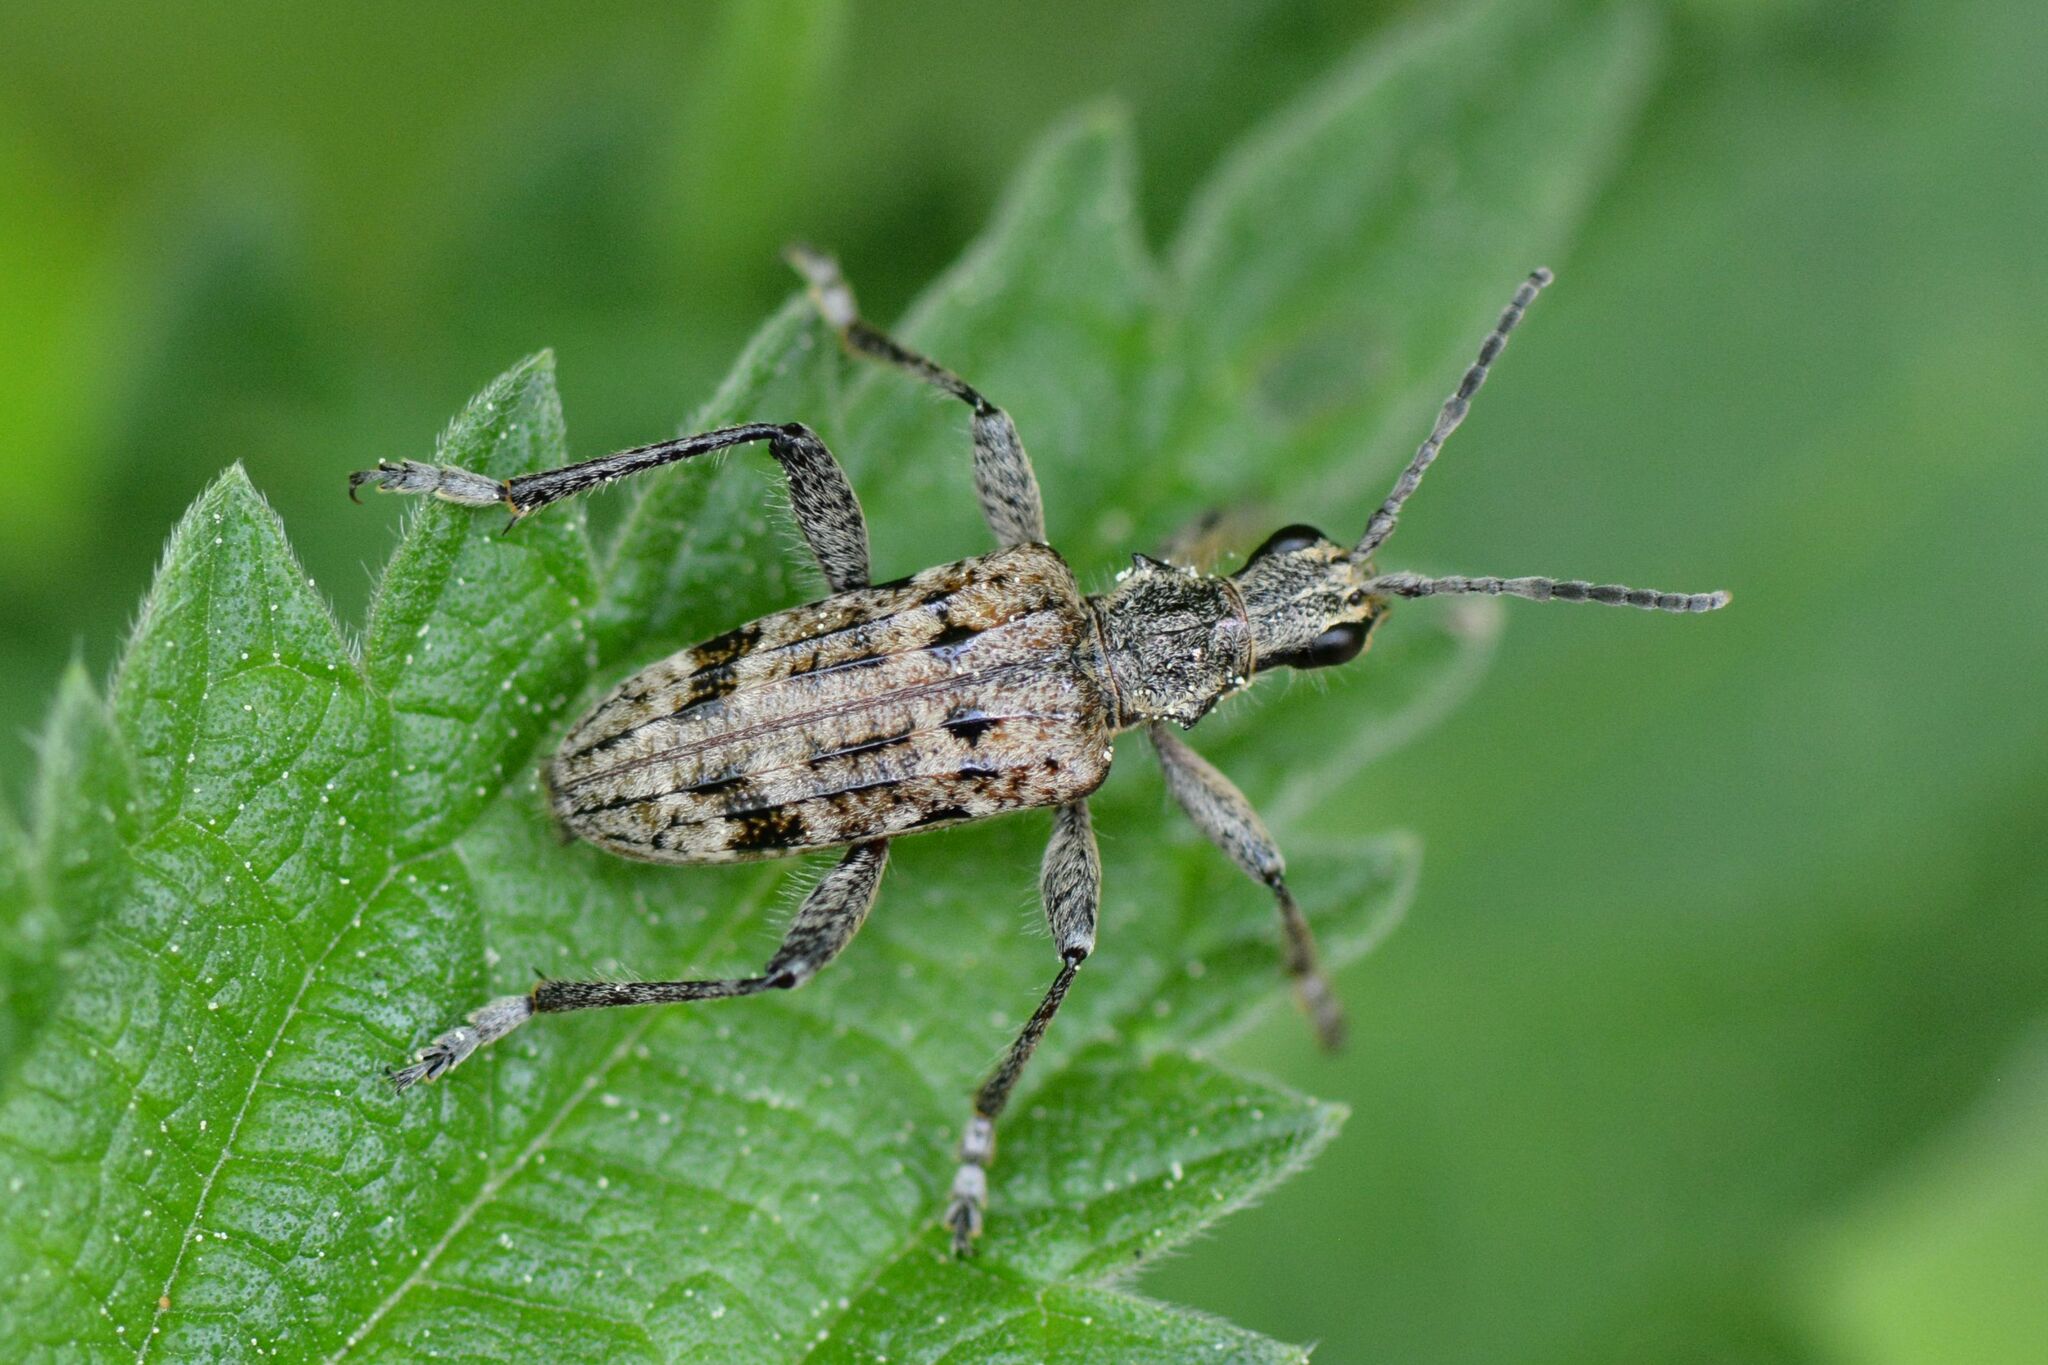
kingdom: Animalia
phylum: Arthropoda
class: Insecta
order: Coleoptera
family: Cerambycidae
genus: Rhagium
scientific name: Rhagium inquisitor
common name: Ribbed pine borer
